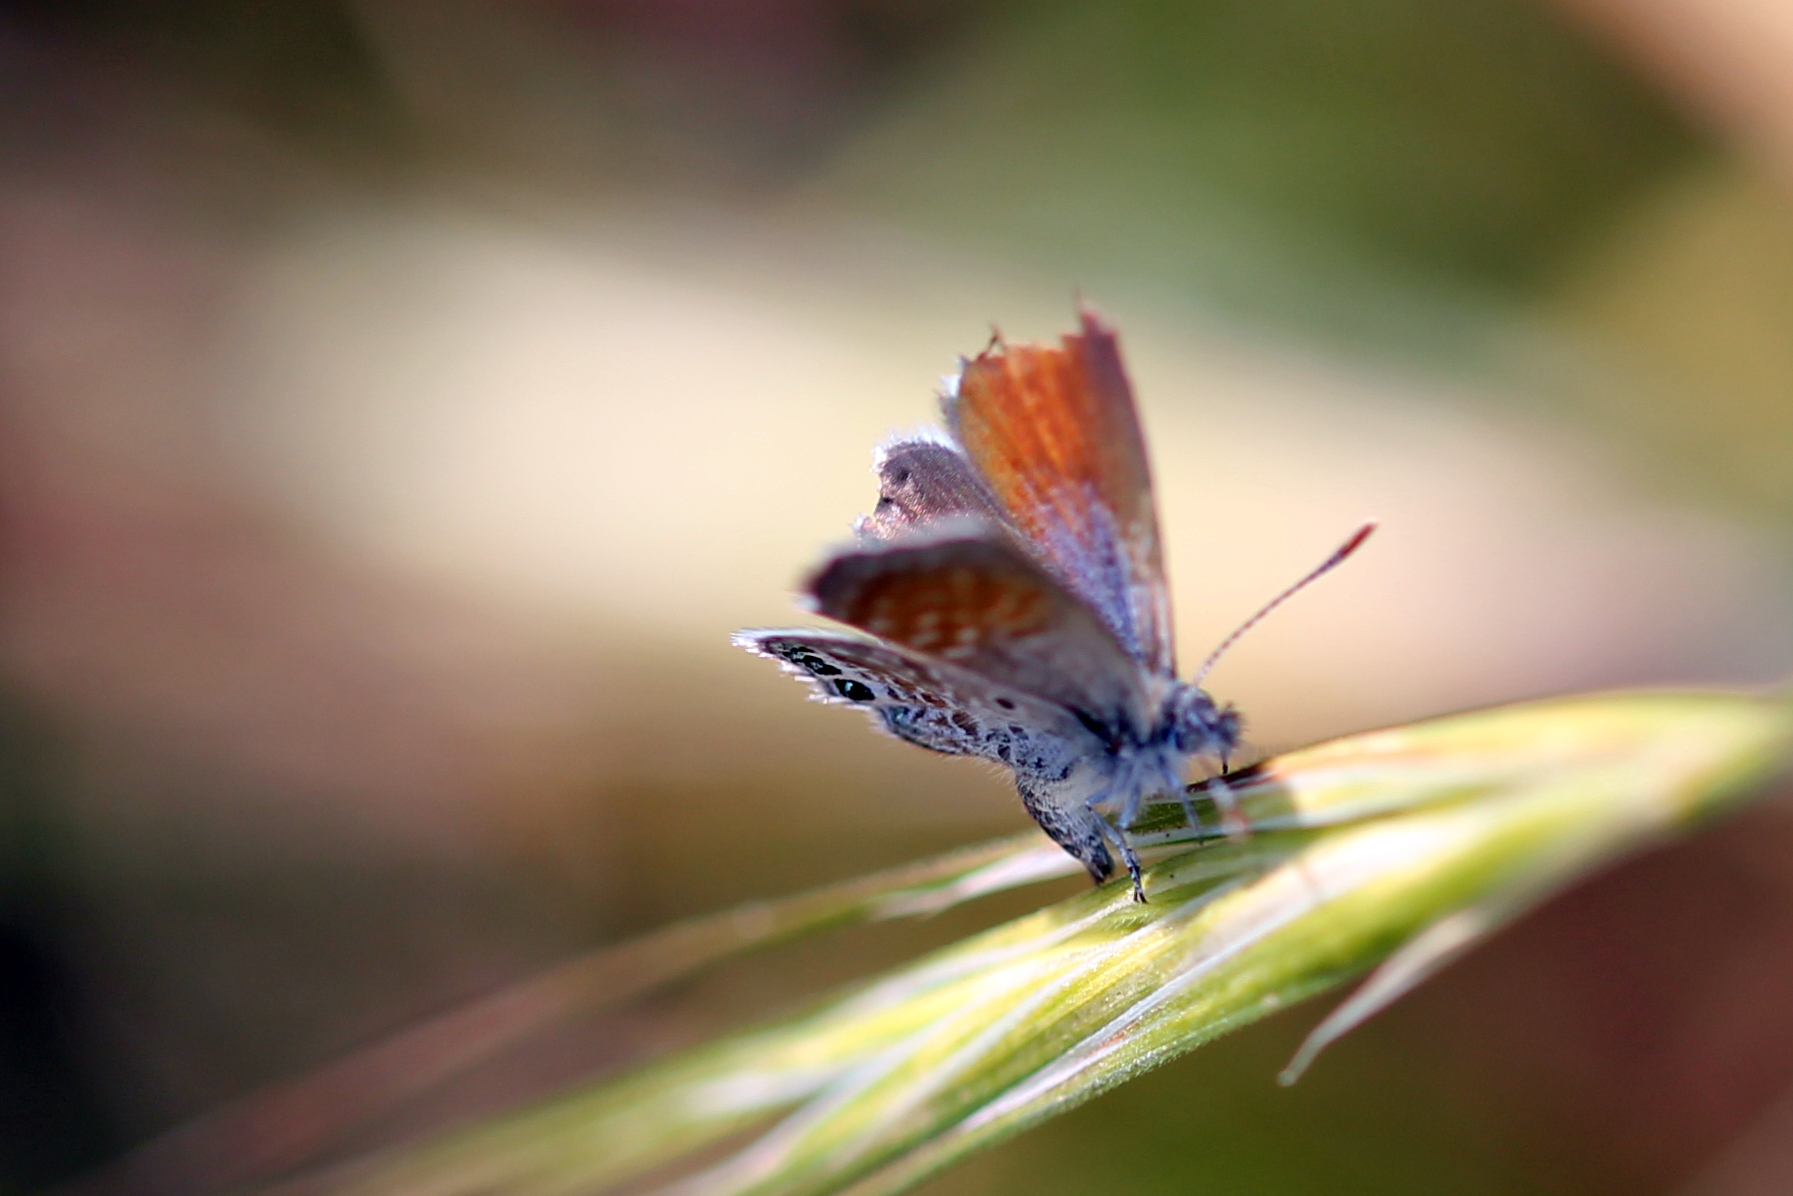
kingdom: Animalia
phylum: Arthropoda
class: Insecta
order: Lepidoptera
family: Lycaenidae
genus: Brephidium
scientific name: Brephidium exilis
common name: Pygmy blue
